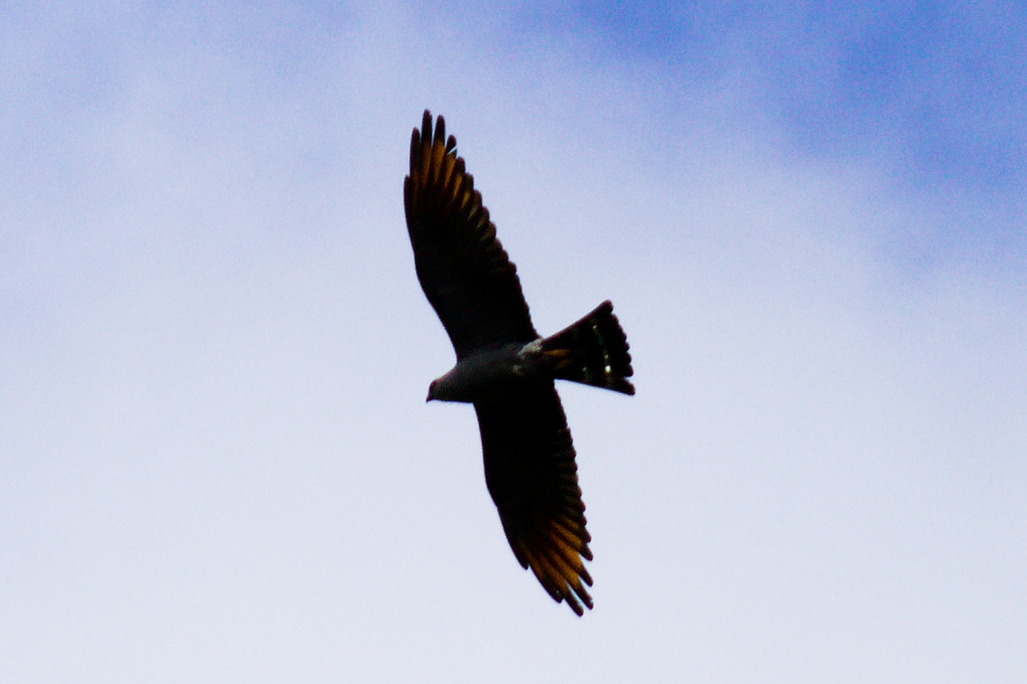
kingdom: Animalia
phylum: Chordata
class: Aves
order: Accipitriformes
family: Accipitridae
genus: Ictinia
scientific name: Ictinia plumbea
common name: Plumbeous kite
